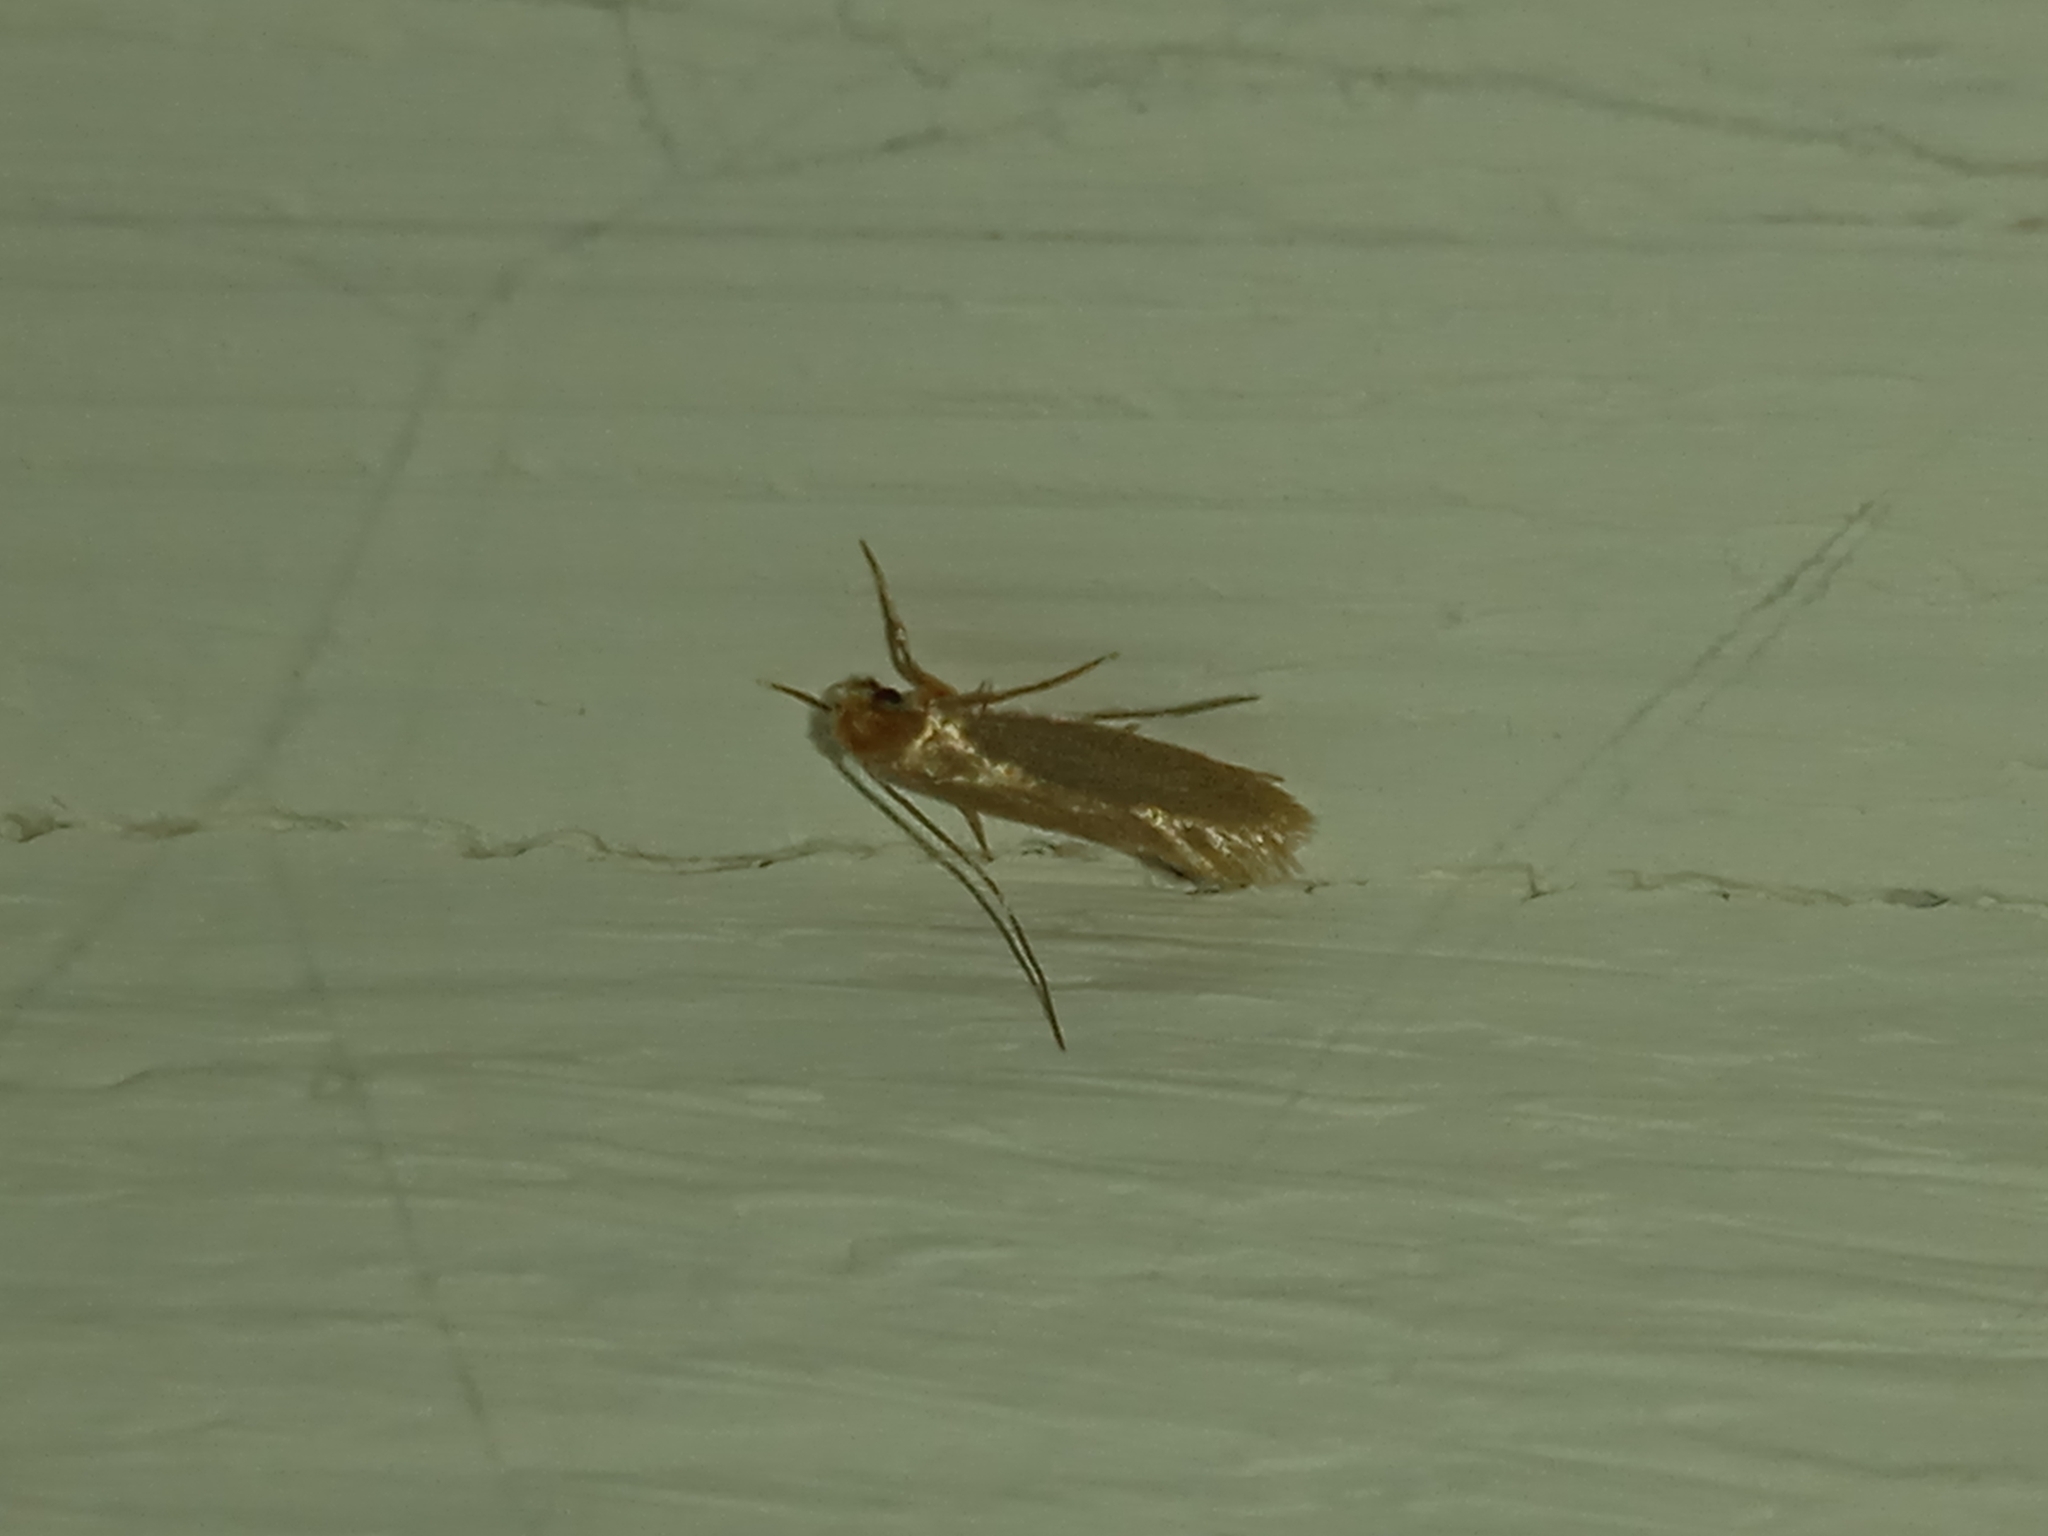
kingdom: Animalia
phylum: Arthropoda
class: Insecta
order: Lepidoptera
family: Tineidae
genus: Tineola
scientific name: Tineola bisselliella
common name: Webbing clothes moth
